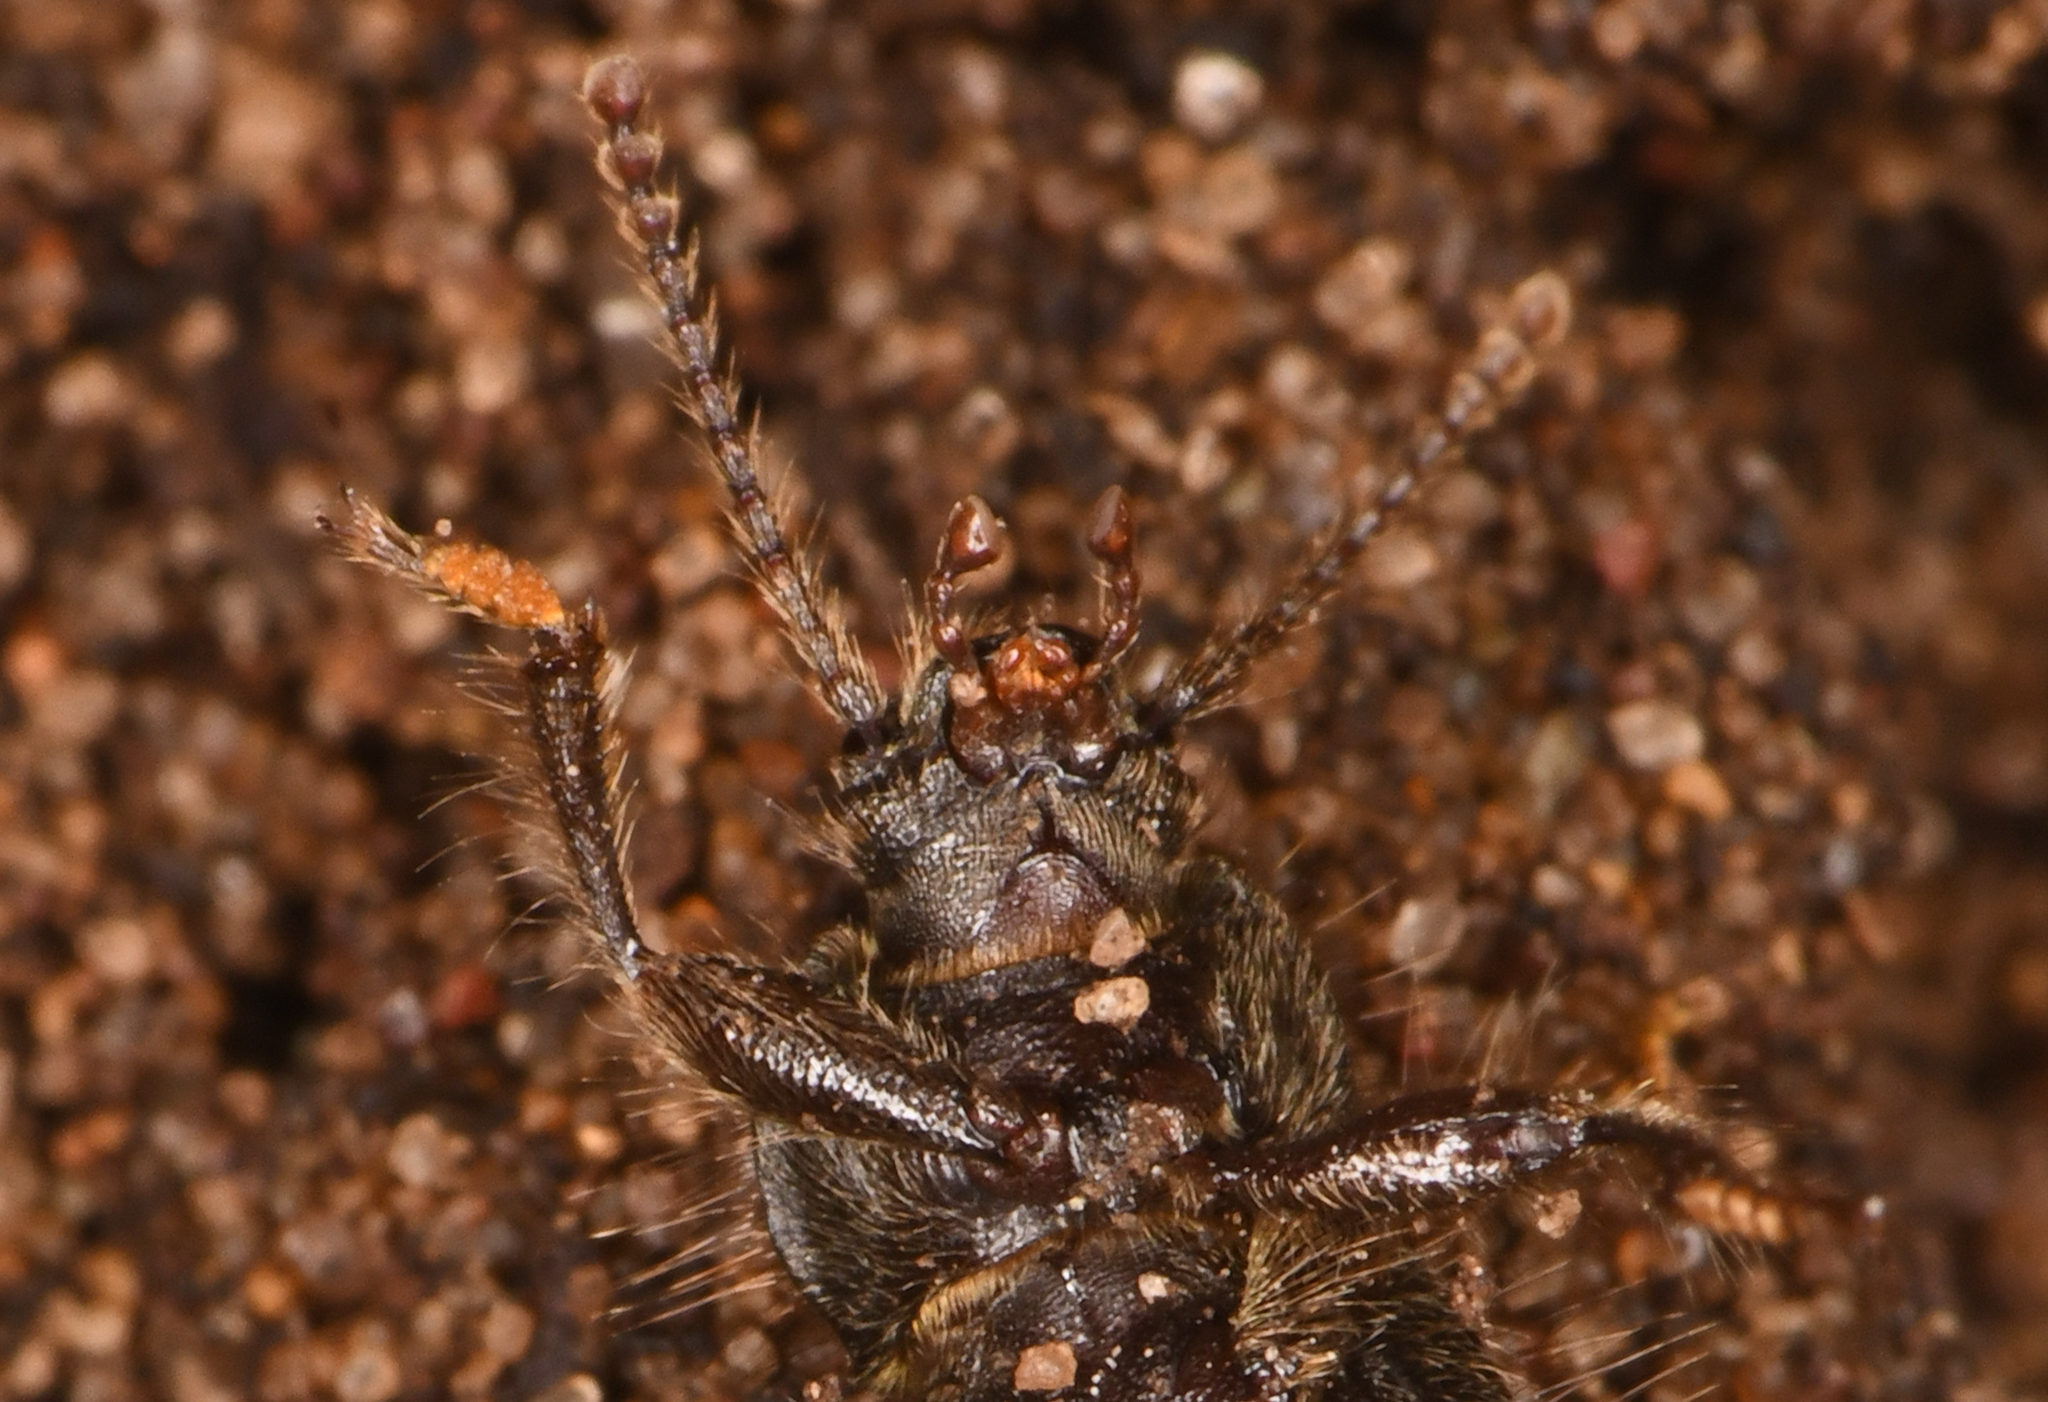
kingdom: Animalia
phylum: Arthropoda
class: Insecta
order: Coleoptera
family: Tenebrionidae
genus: Eleodes
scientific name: Eleodes littoralis
